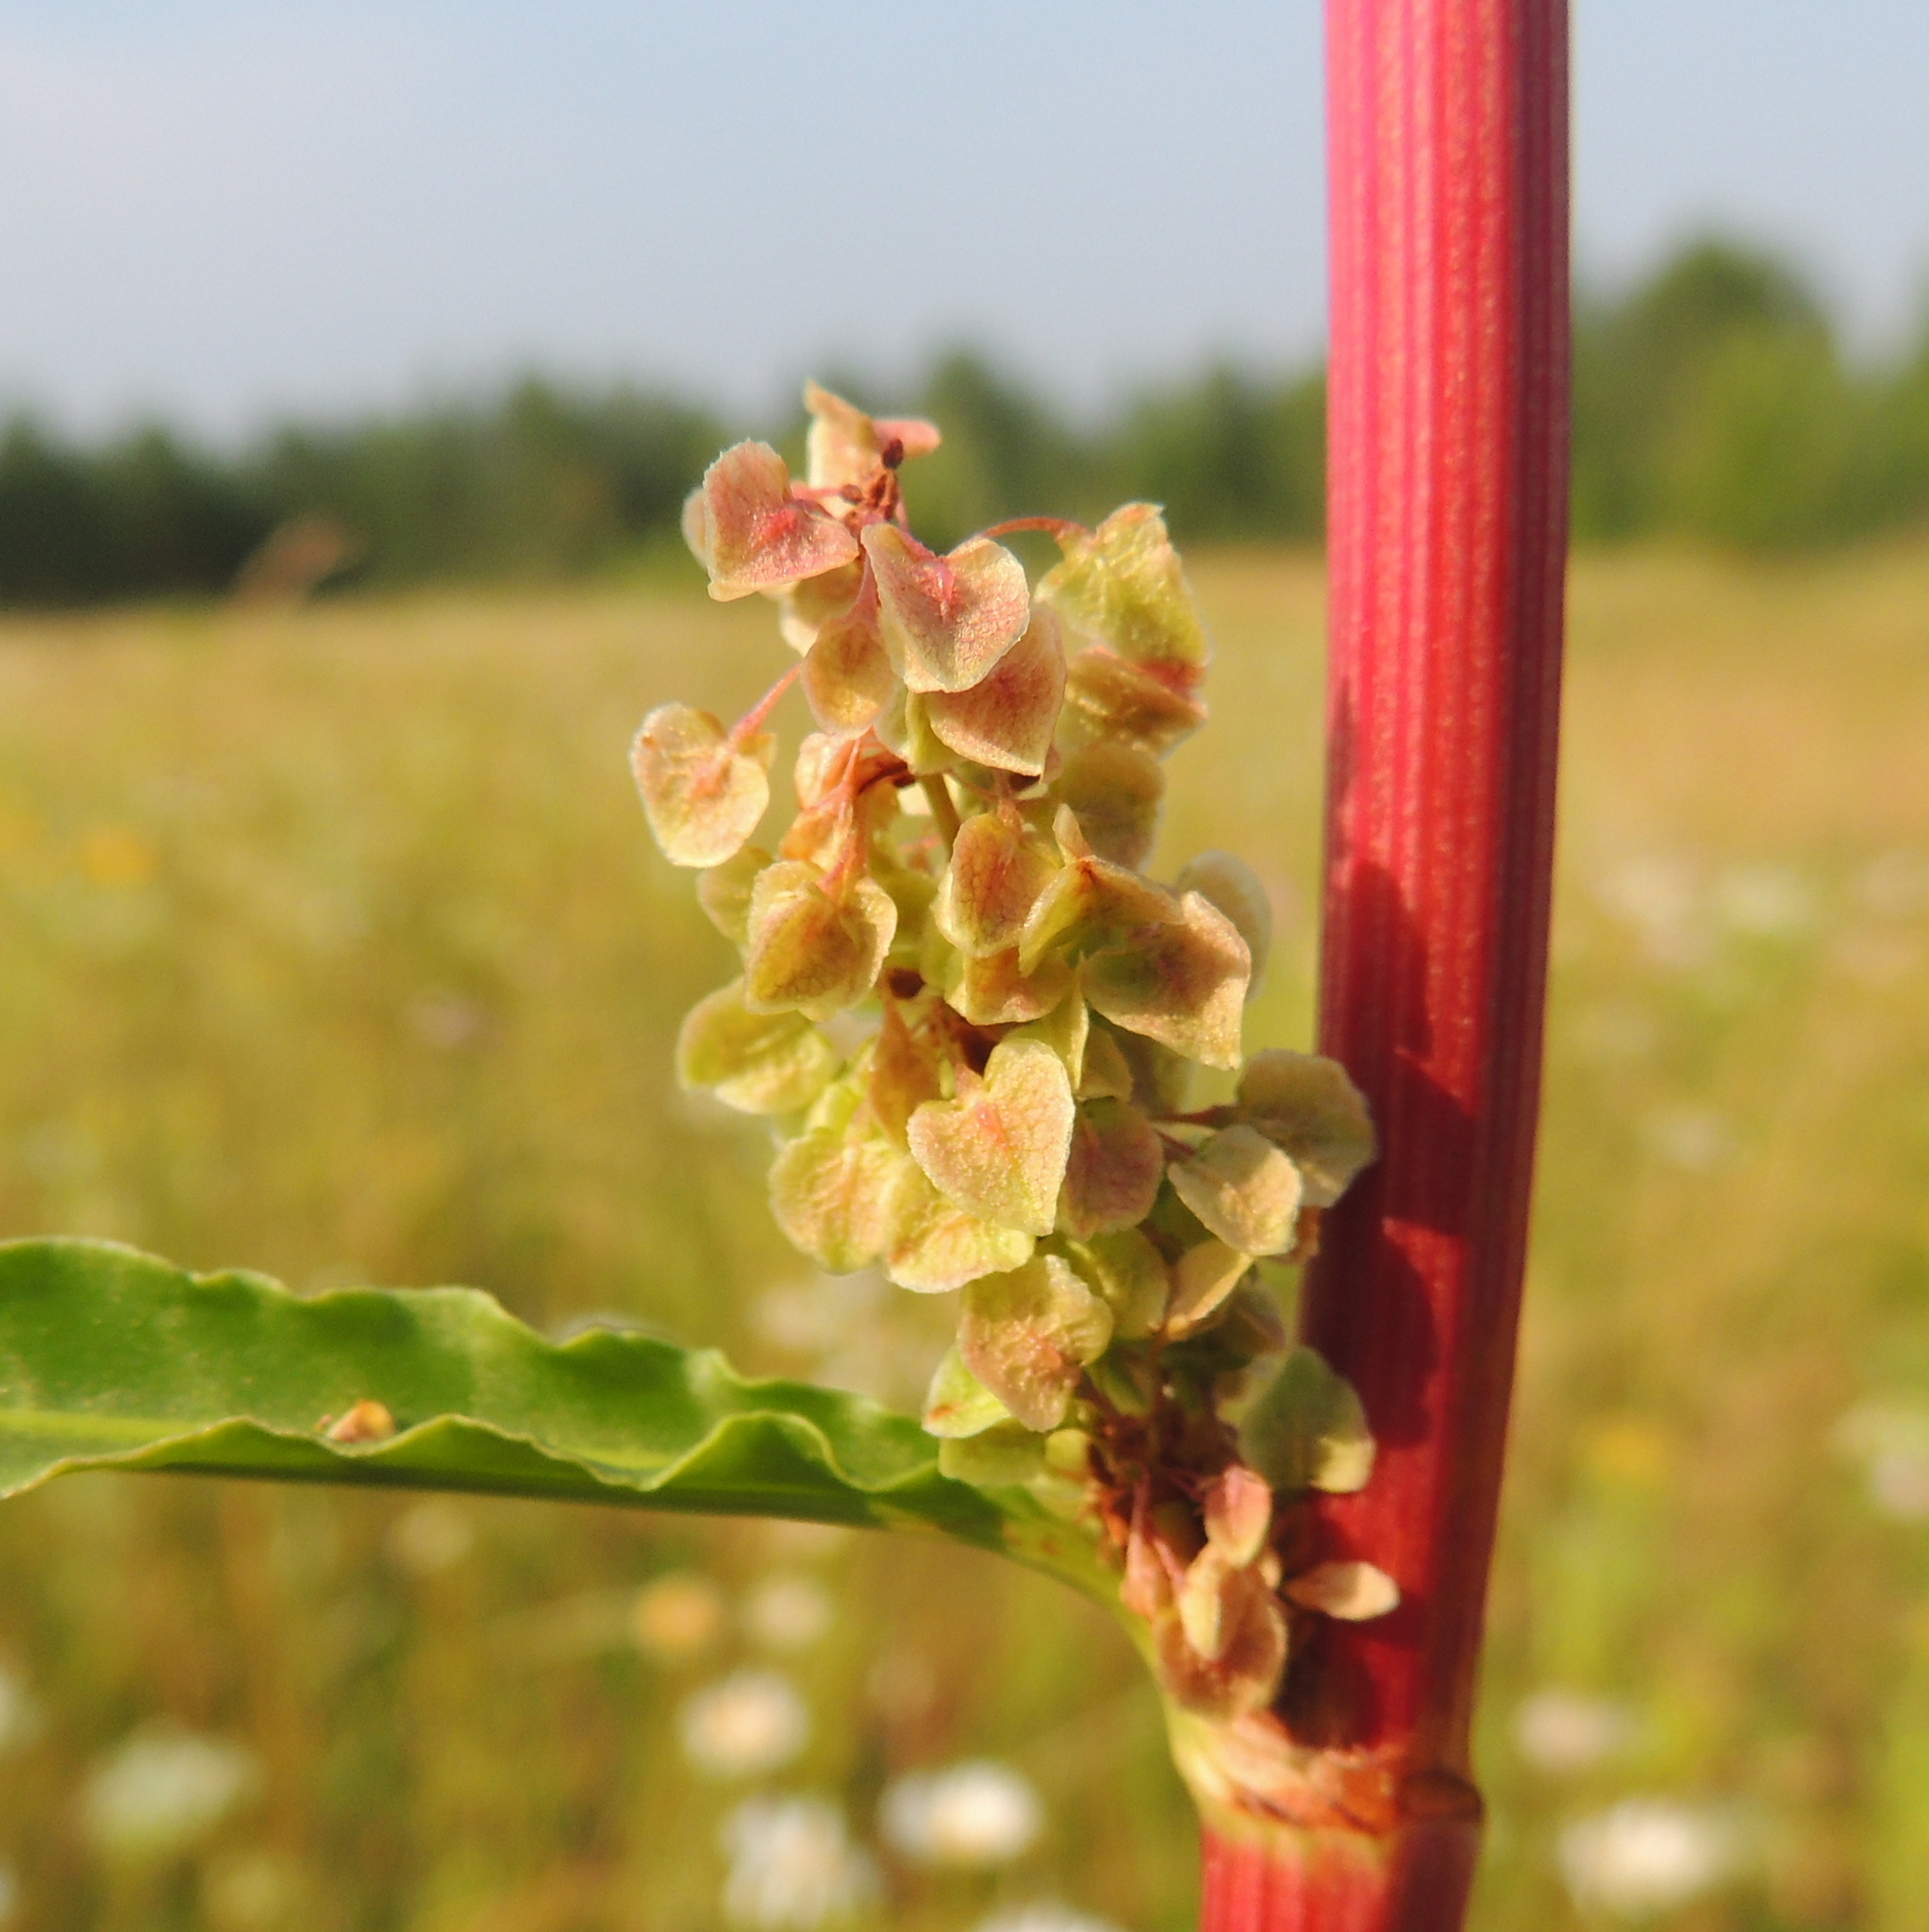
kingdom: Plantae
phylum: Tracheophyta
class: Magnoliopsida
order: Caryophyllales
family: Polygonaceae
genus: Rumex
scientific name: Rumex pseudonatronatus
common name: Field dock
